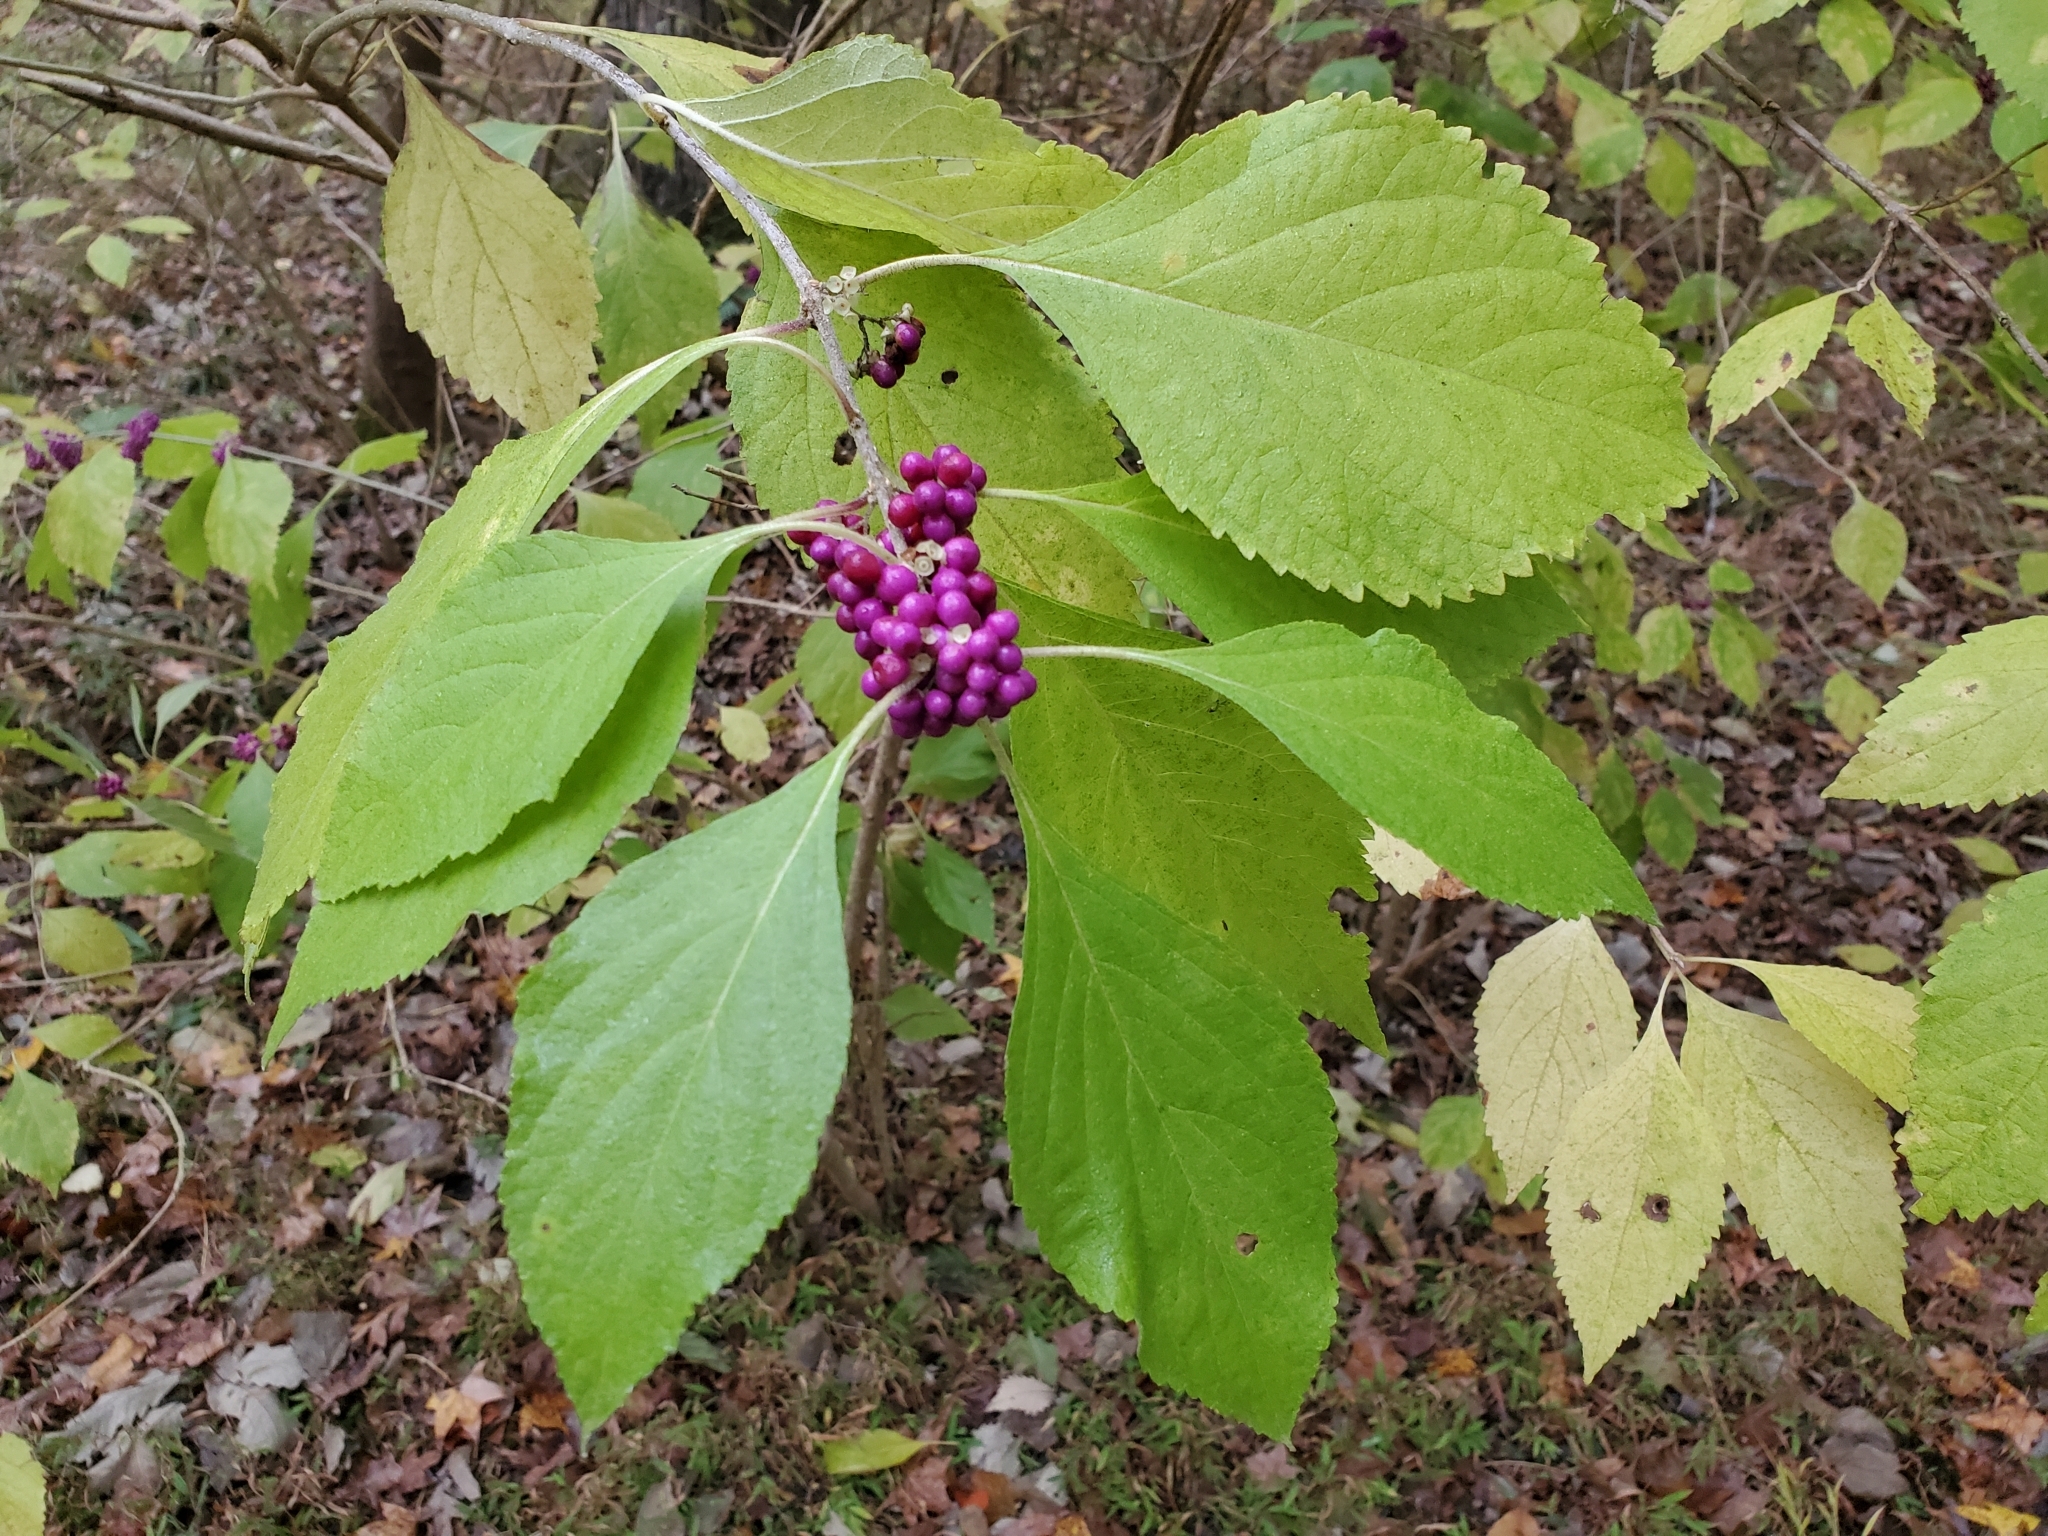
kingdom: Plantae
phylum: Tracheophyta
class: Magnoliopsida
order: Lamiales
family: Lamiaceae
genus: Callicarpa
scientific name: Callicarpa americana
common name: American beautyberry
